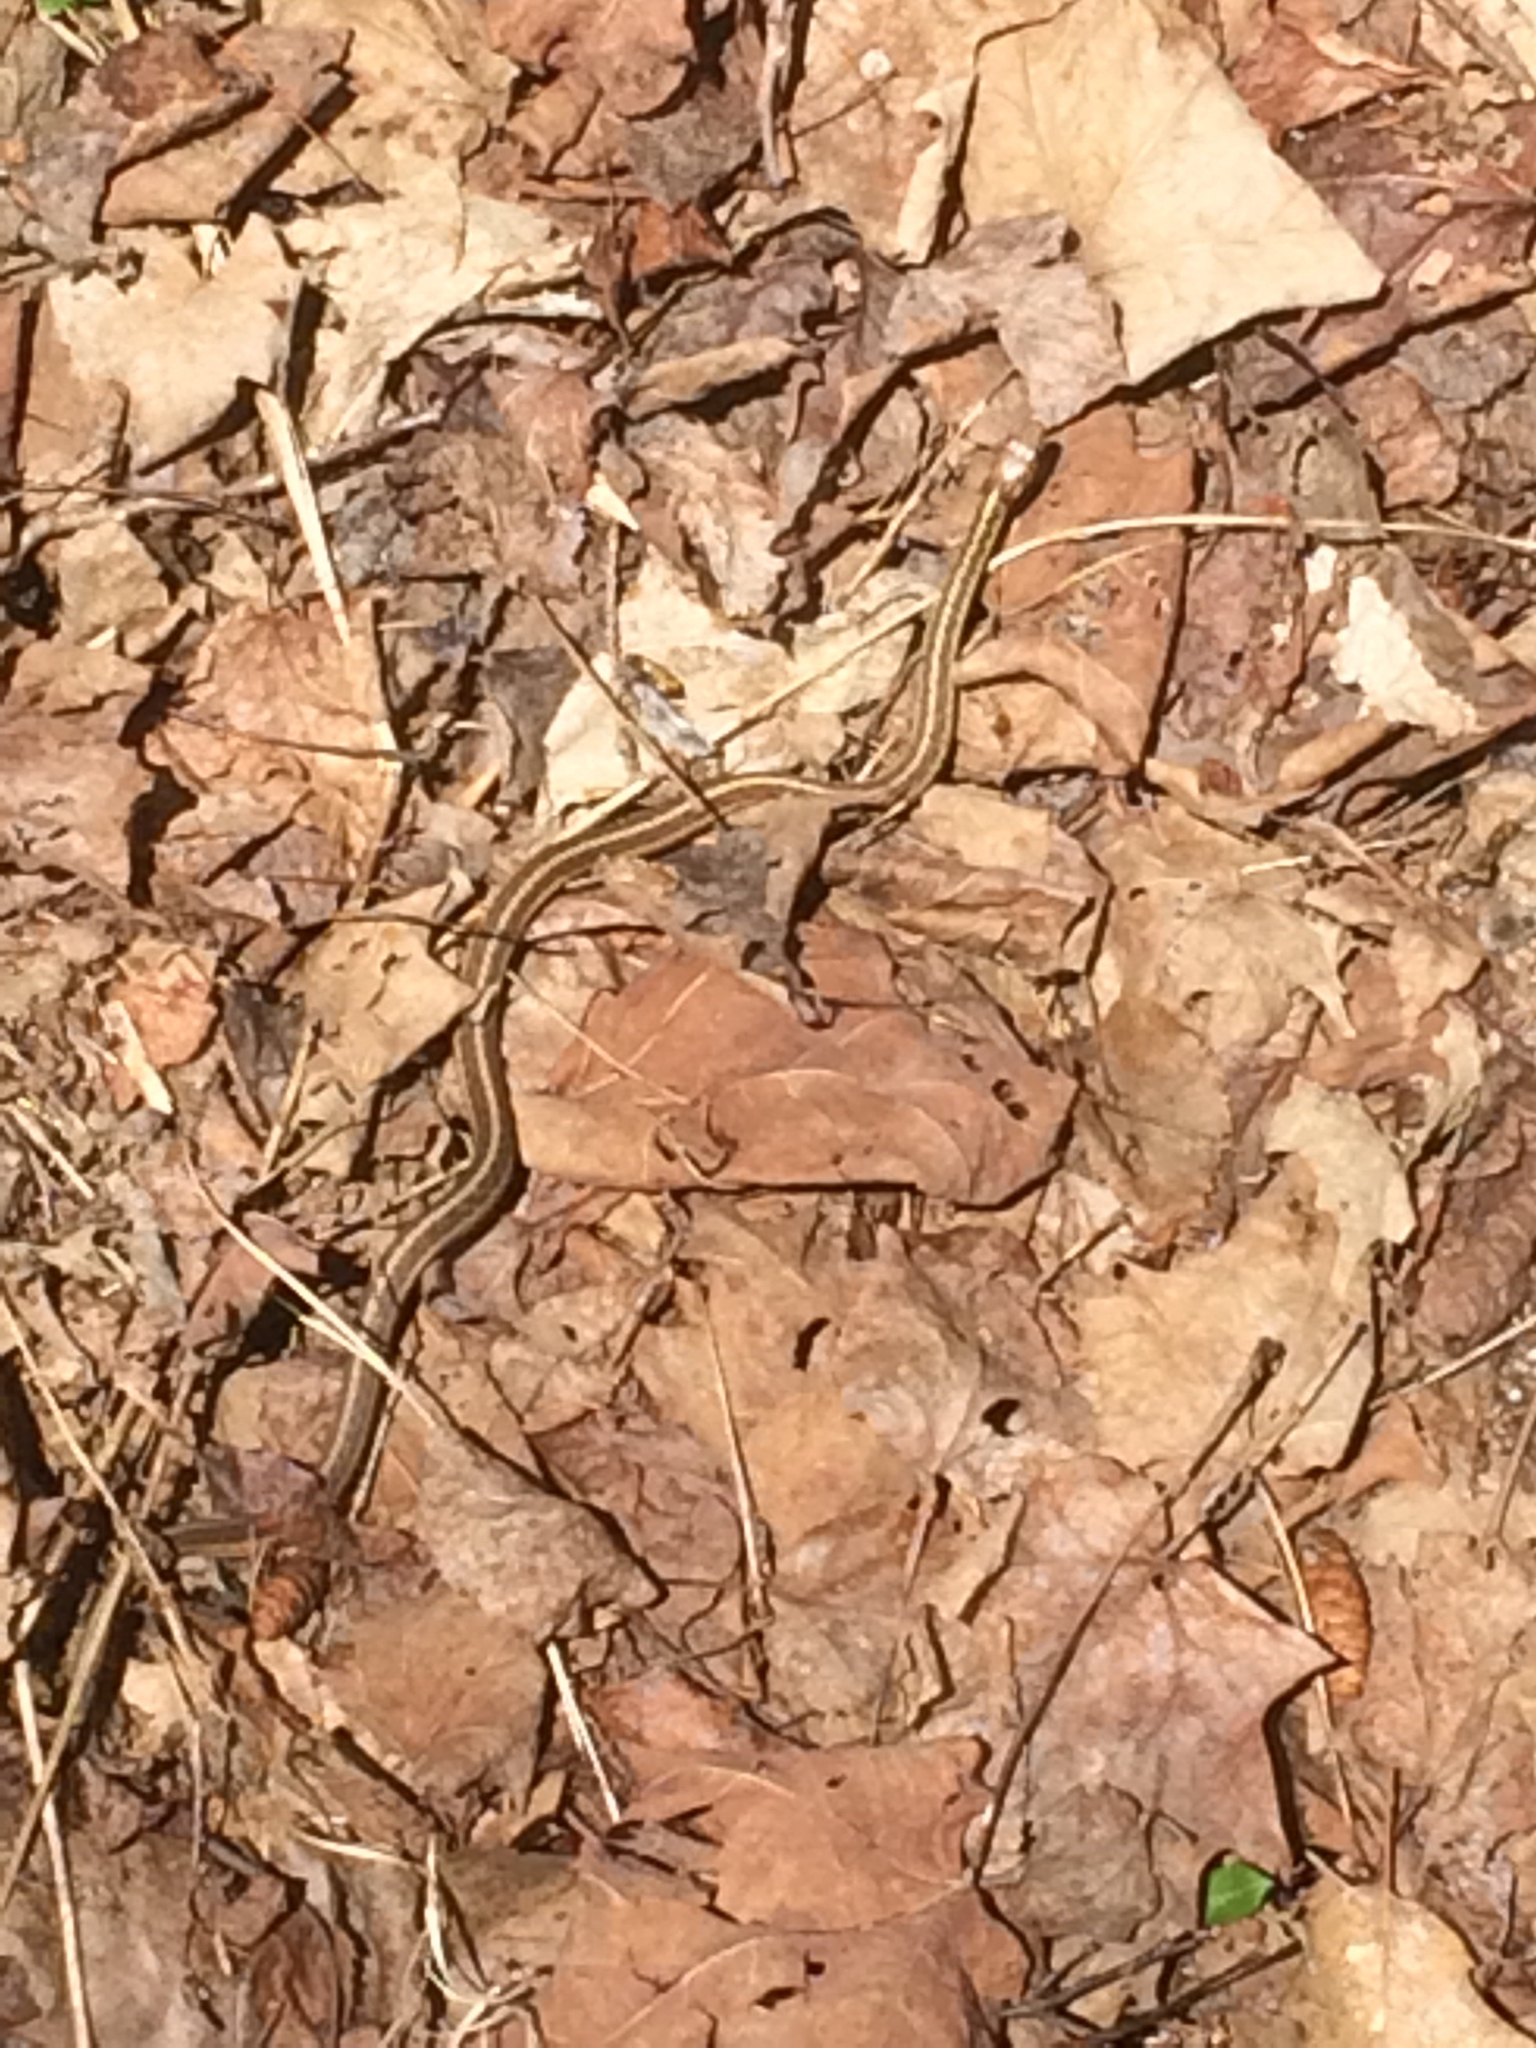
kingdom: Animalia
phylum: Chordata
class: Squamata
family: Colubridae
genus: Thamnophis
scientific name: Thamnophis sirtalis
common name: Common garter snake
